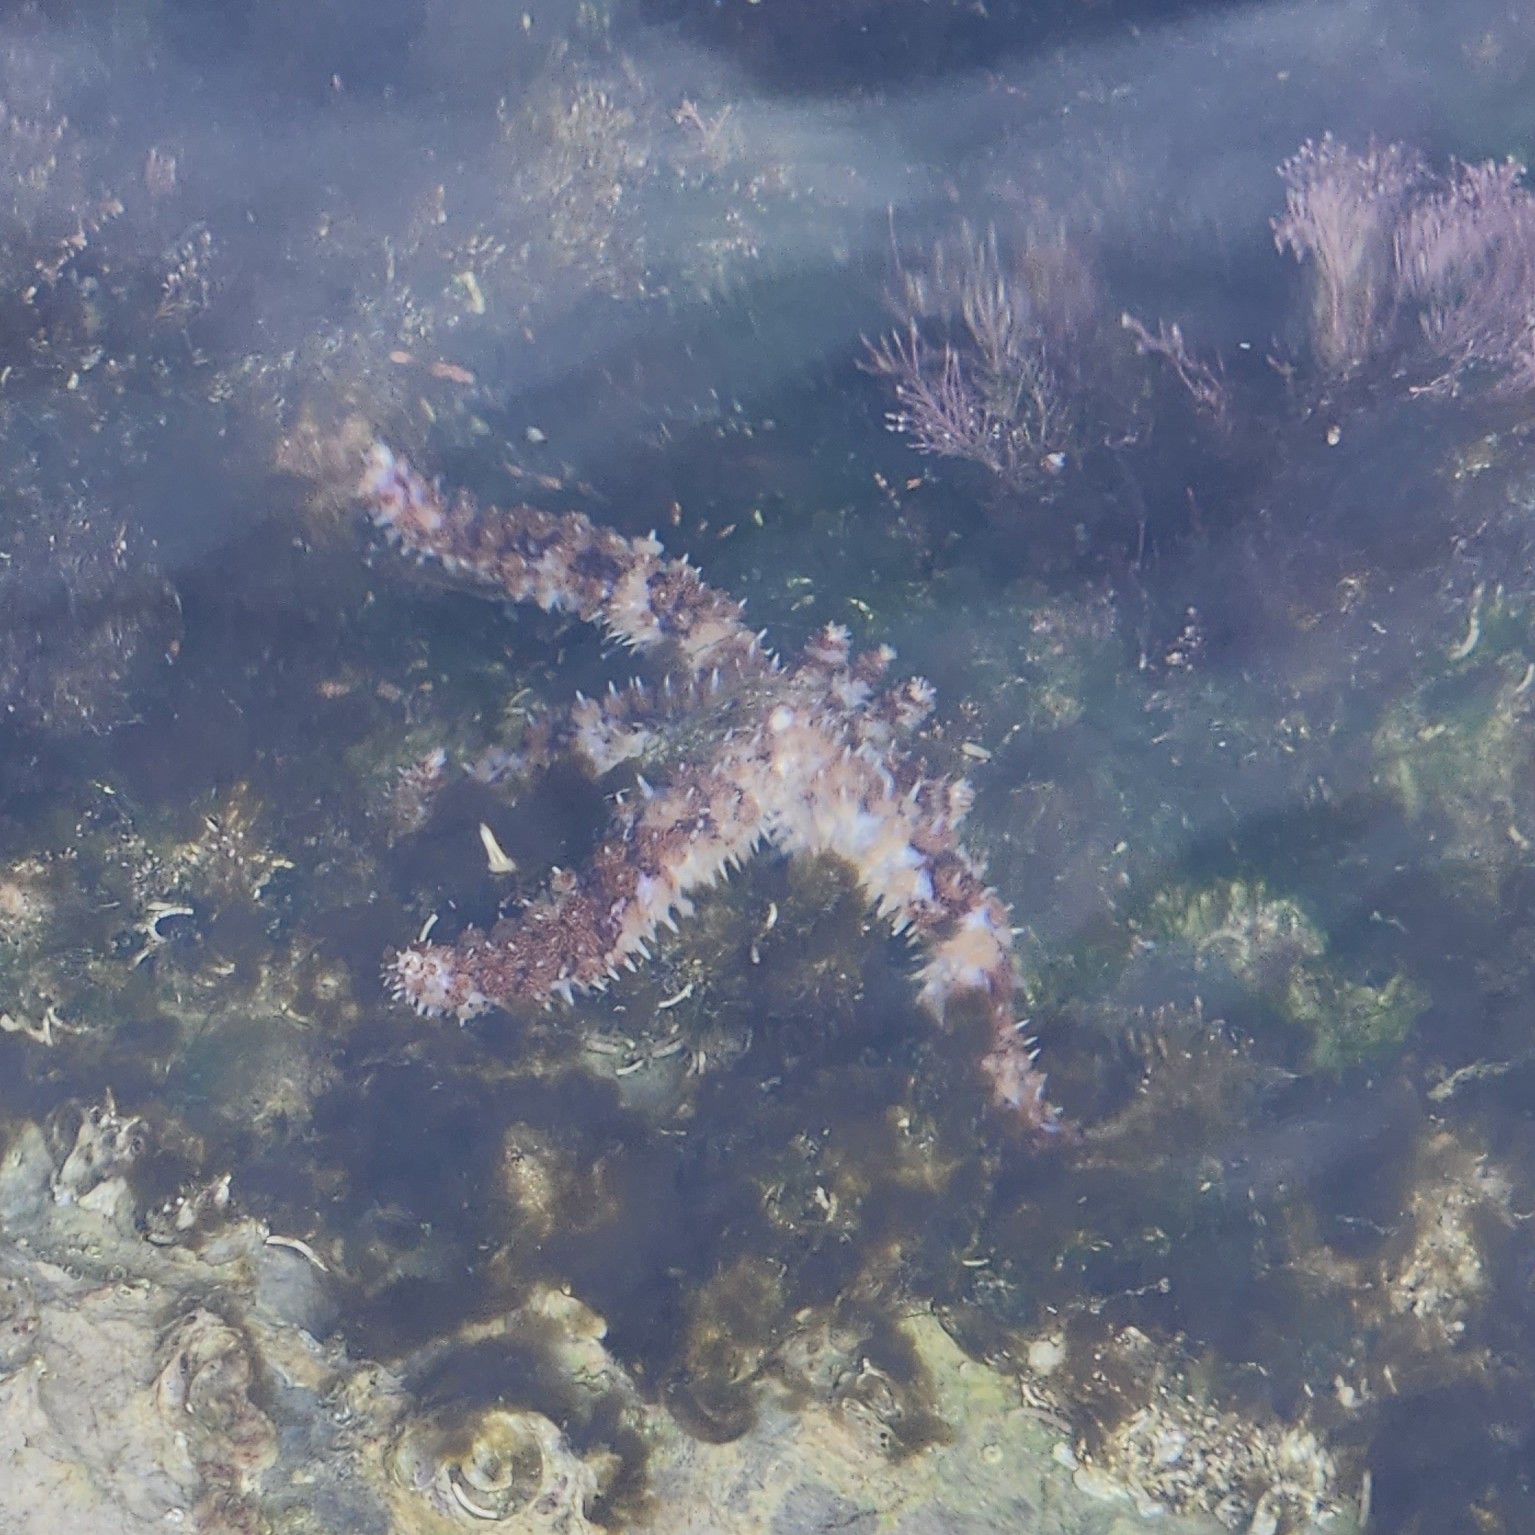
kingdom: Animalia
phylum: Echinodermata
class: Asteroidea
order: Forcipulatida
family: Asteriidae
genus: Coscinasterias
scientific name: Coscinasterias tenuispina
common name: Blue spiny starfish
